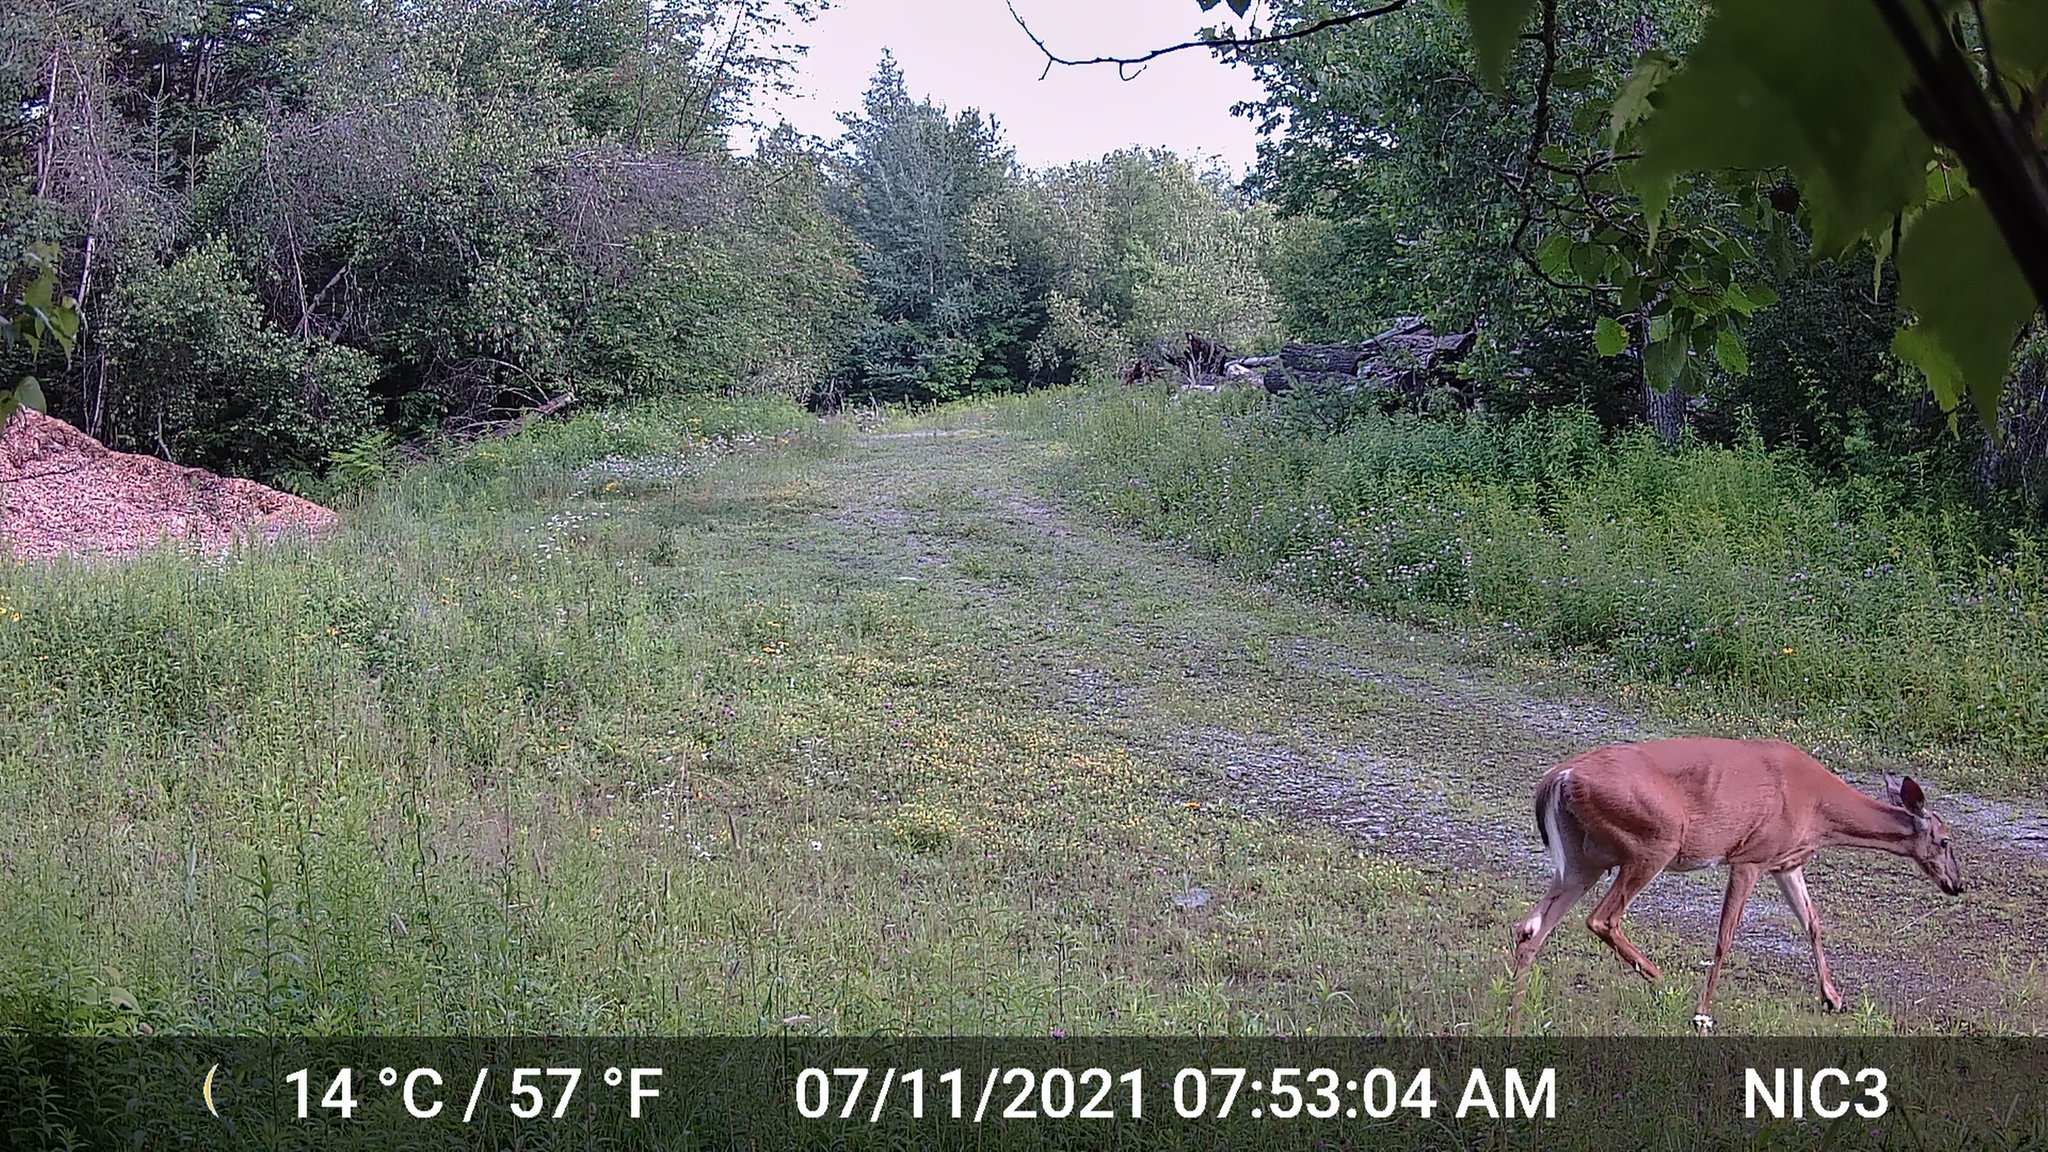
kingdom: Animalia
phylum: Chordata
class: Mammalia
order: Artiodactyla
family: Cervidae
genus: Odocoileus
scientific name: Odocoileus virginianus
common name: White-tailed deer
